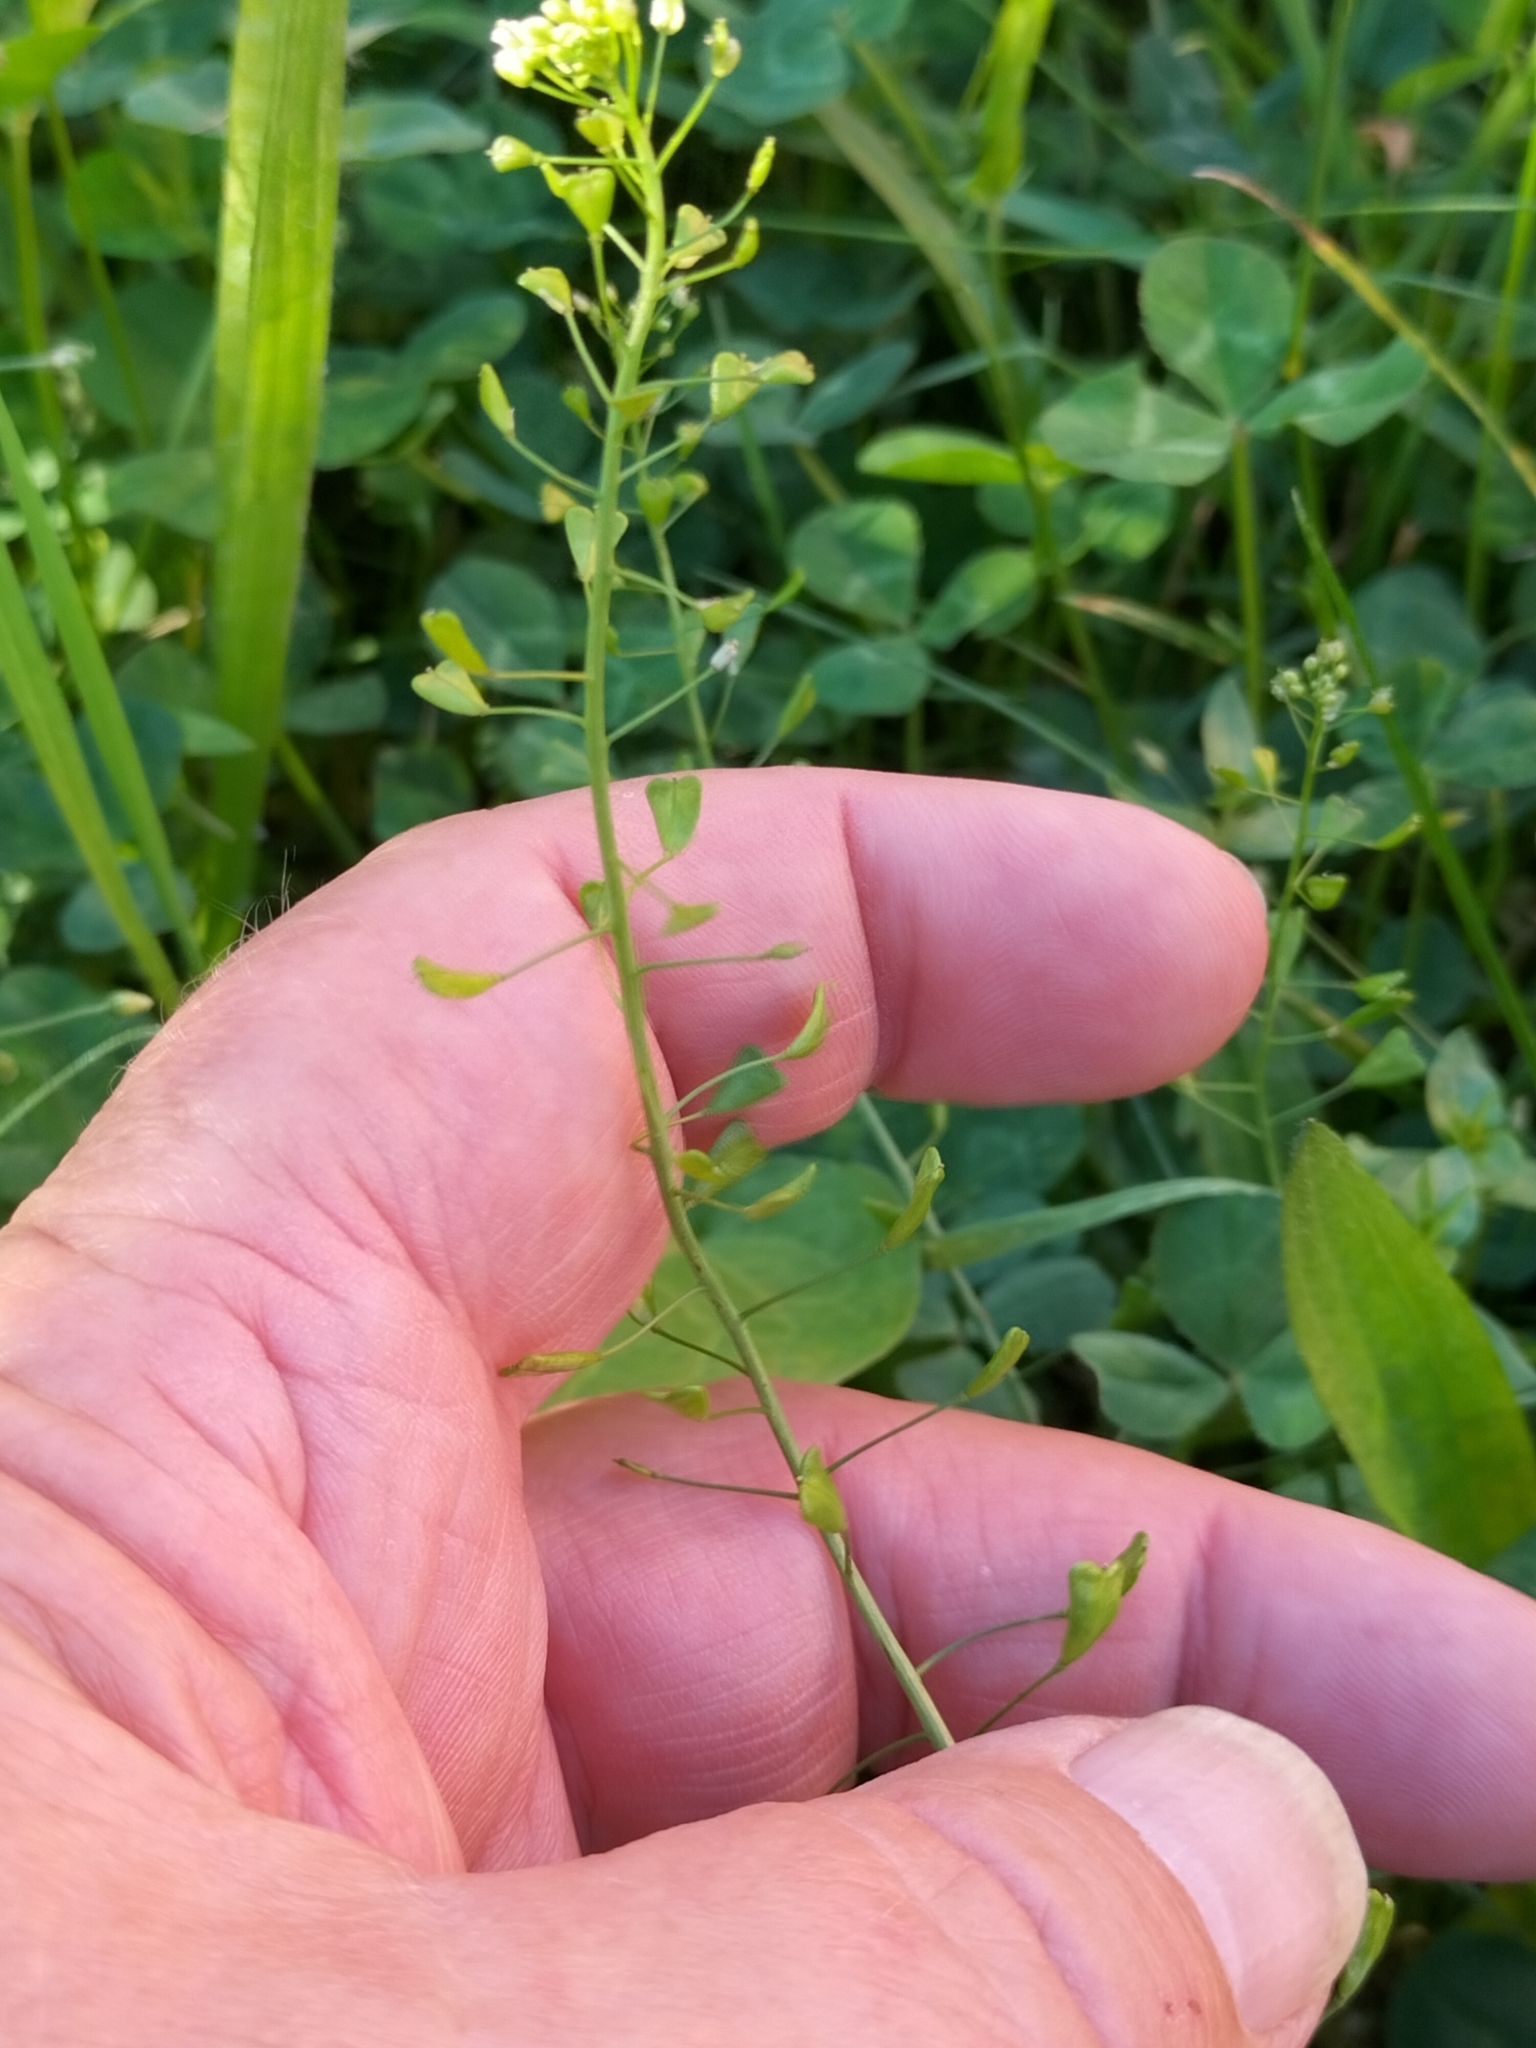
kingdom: Plantae
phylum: Tracheophyta
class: Magnoliopsida
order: Brassicales
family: Brassicaceae
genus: Capsella
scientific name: Capsella bursa-pastoris
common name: Shepherd's purse
